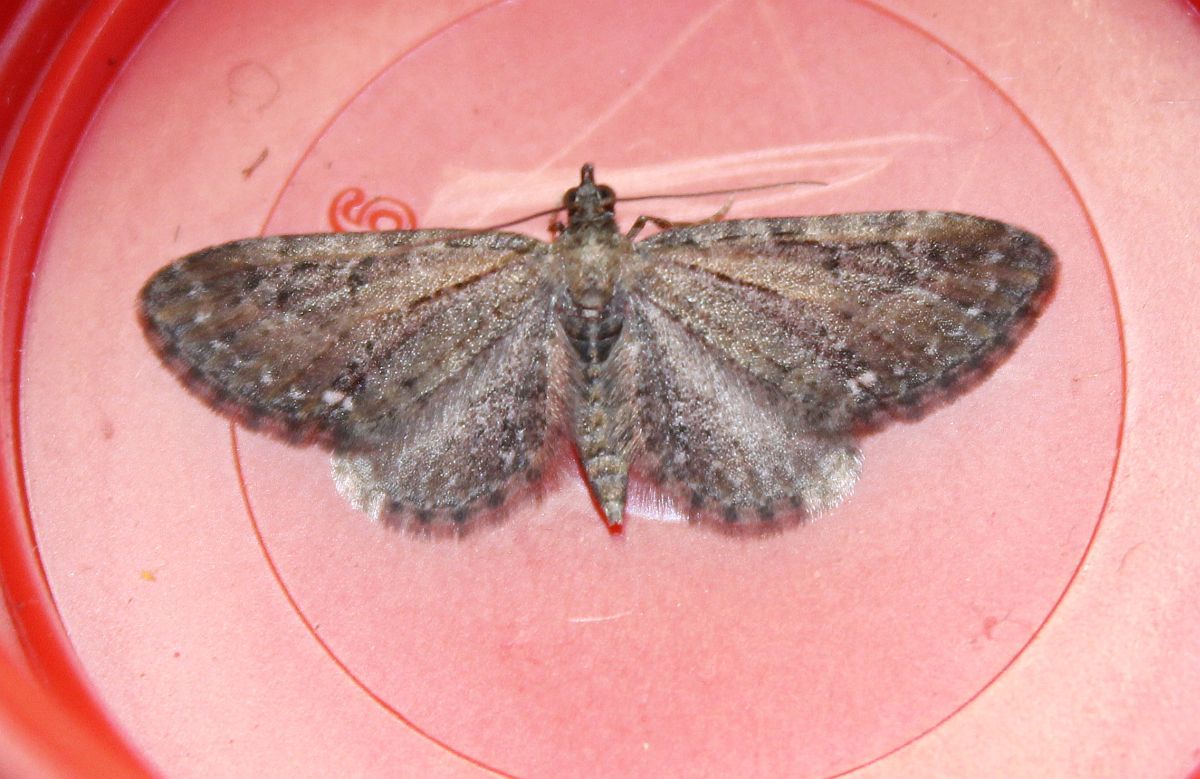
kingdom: Animalia
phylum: Arthropoda
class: Insecta
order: Lepidoptera
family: Geometridae
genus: Eupithecia
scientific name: Eupithecia vulgata
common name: Common pug
